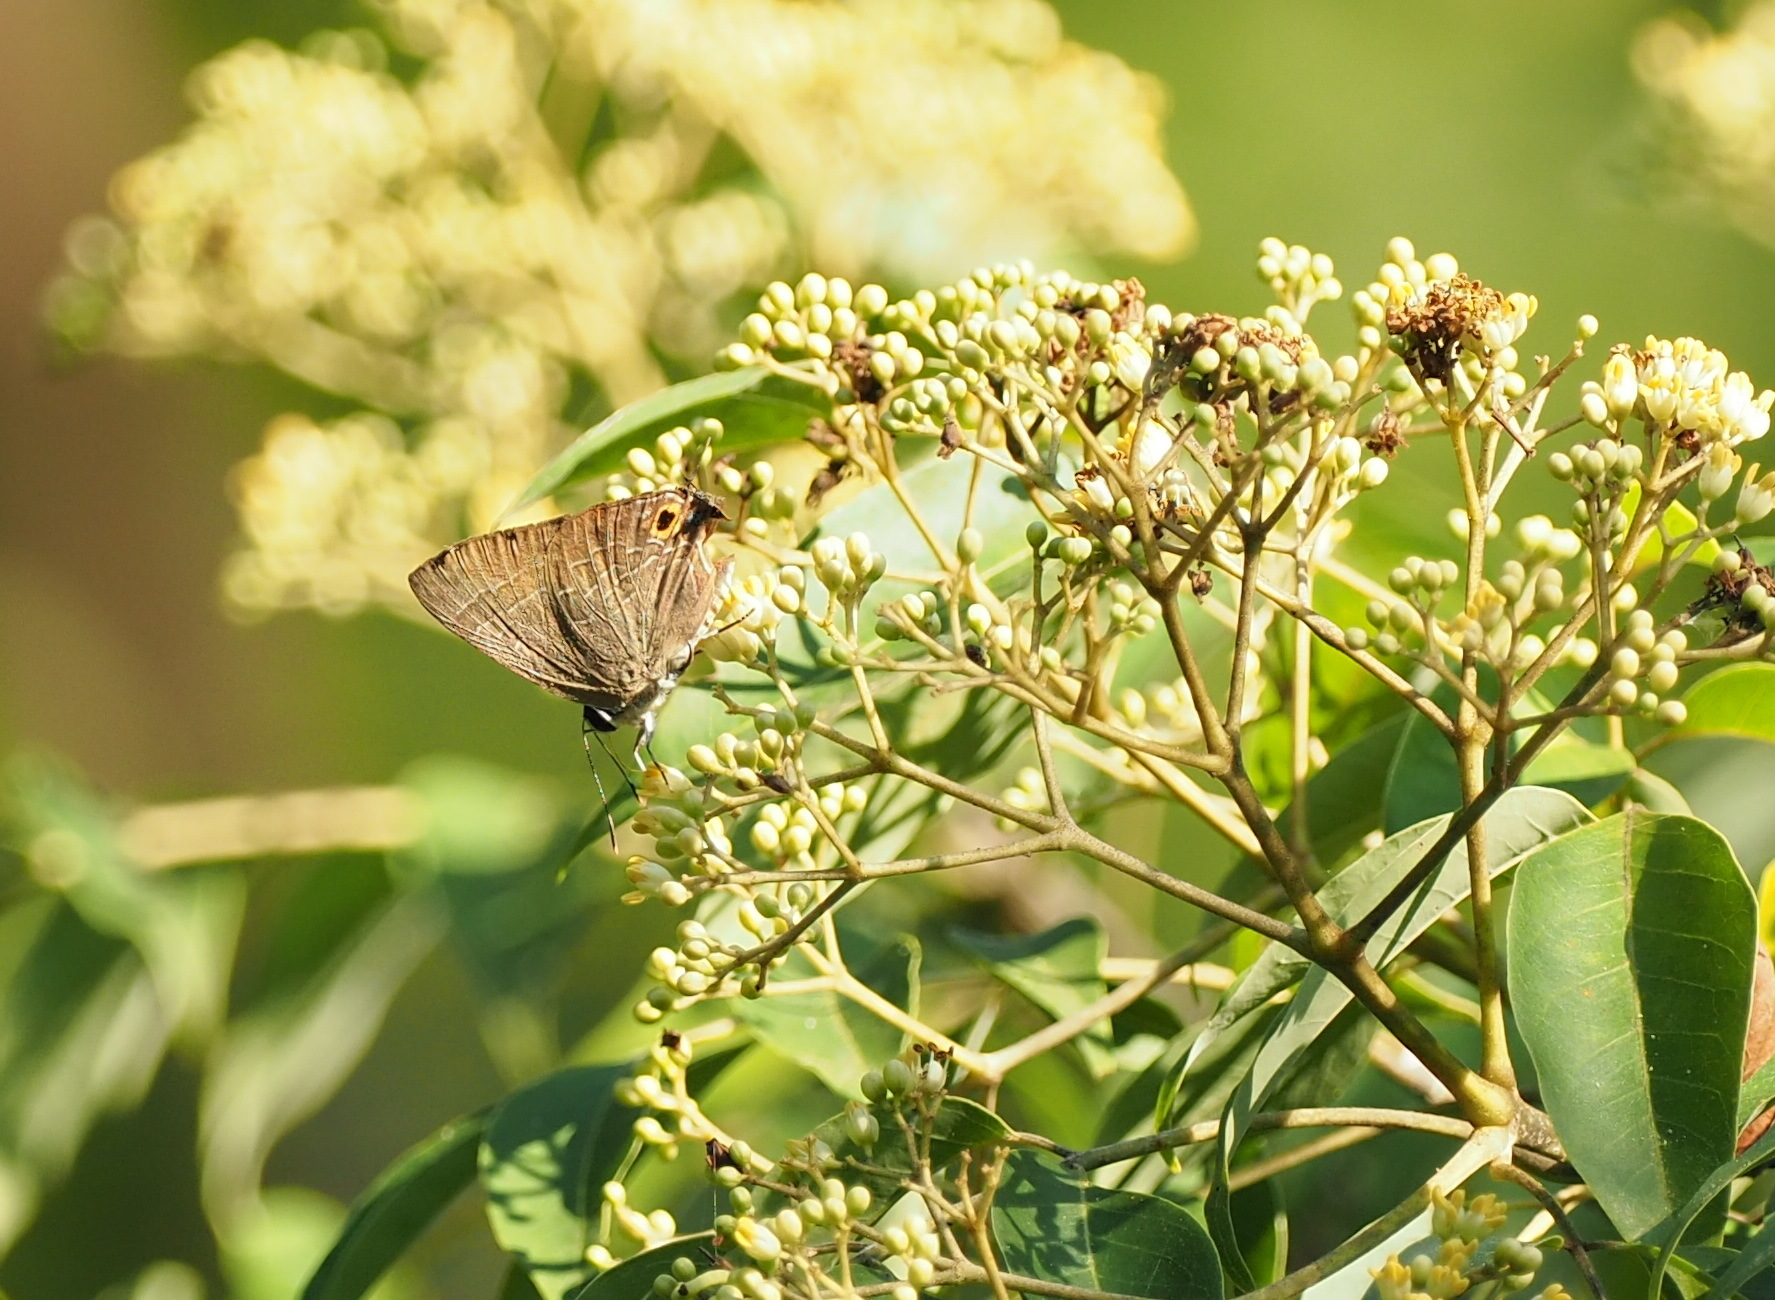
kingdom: Animalia
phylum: Arthropoda
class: Insecta
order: Lepidoptera
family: Lycaenidae
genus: Deudorix
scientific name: Deudorix epijarbas
